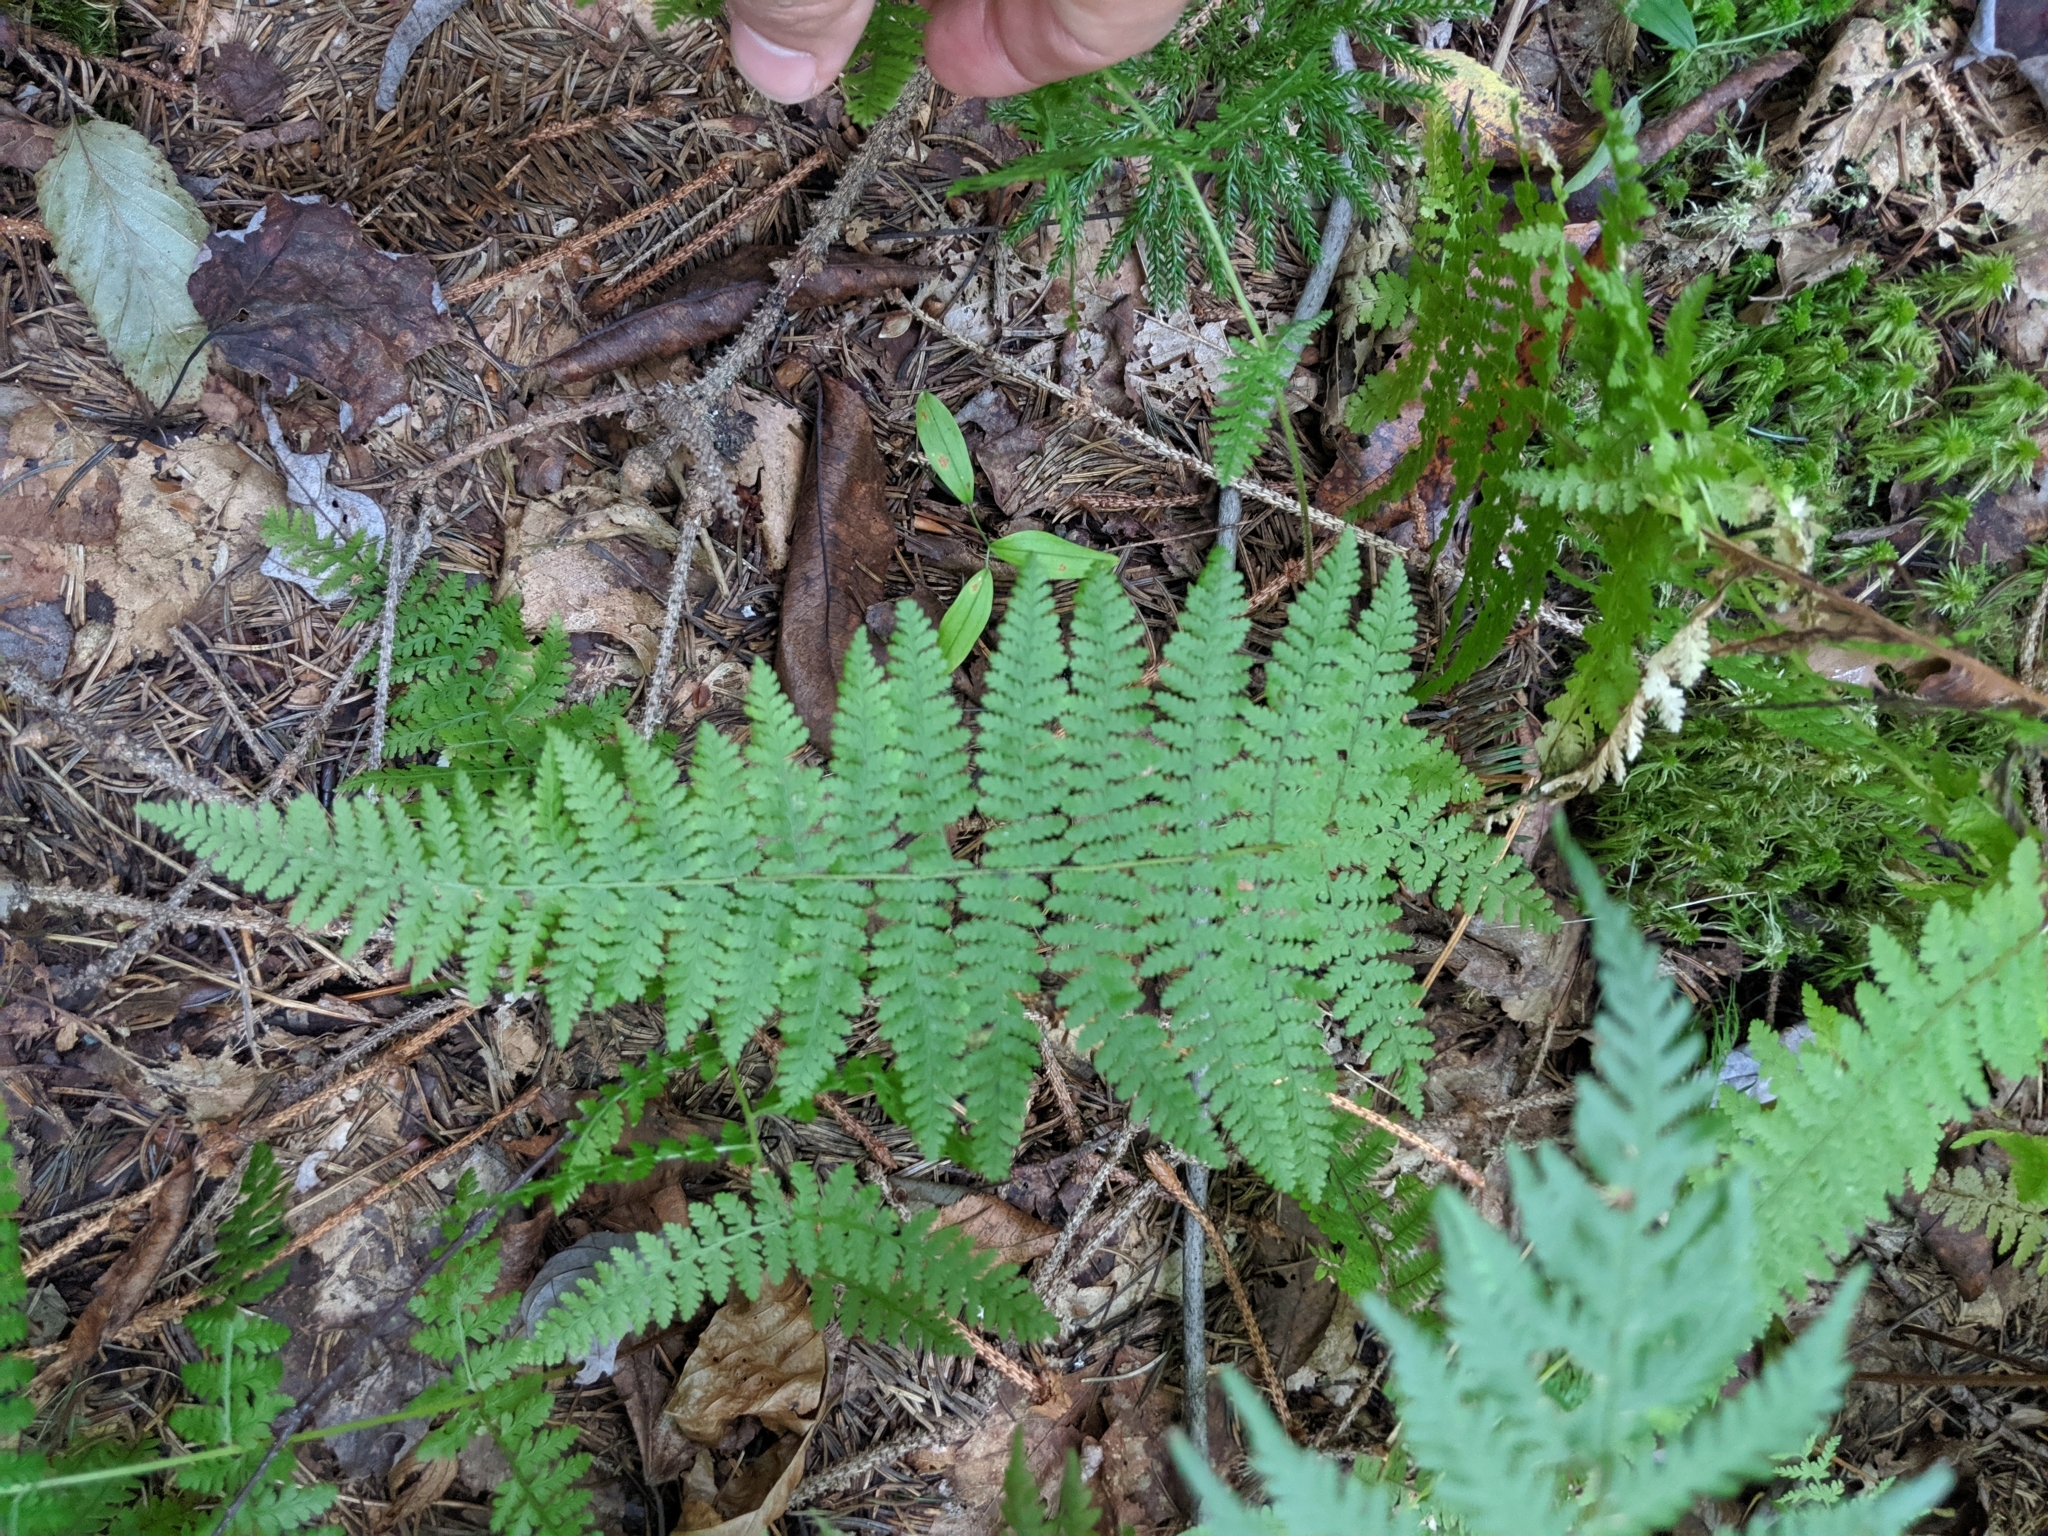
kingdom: Plantae
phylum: Tracheophyta
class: Polypodiopsida
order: Polypodiales
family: Dennstaedtiaceae
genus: Sitobolium
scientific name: Sitobolium punctilobum
